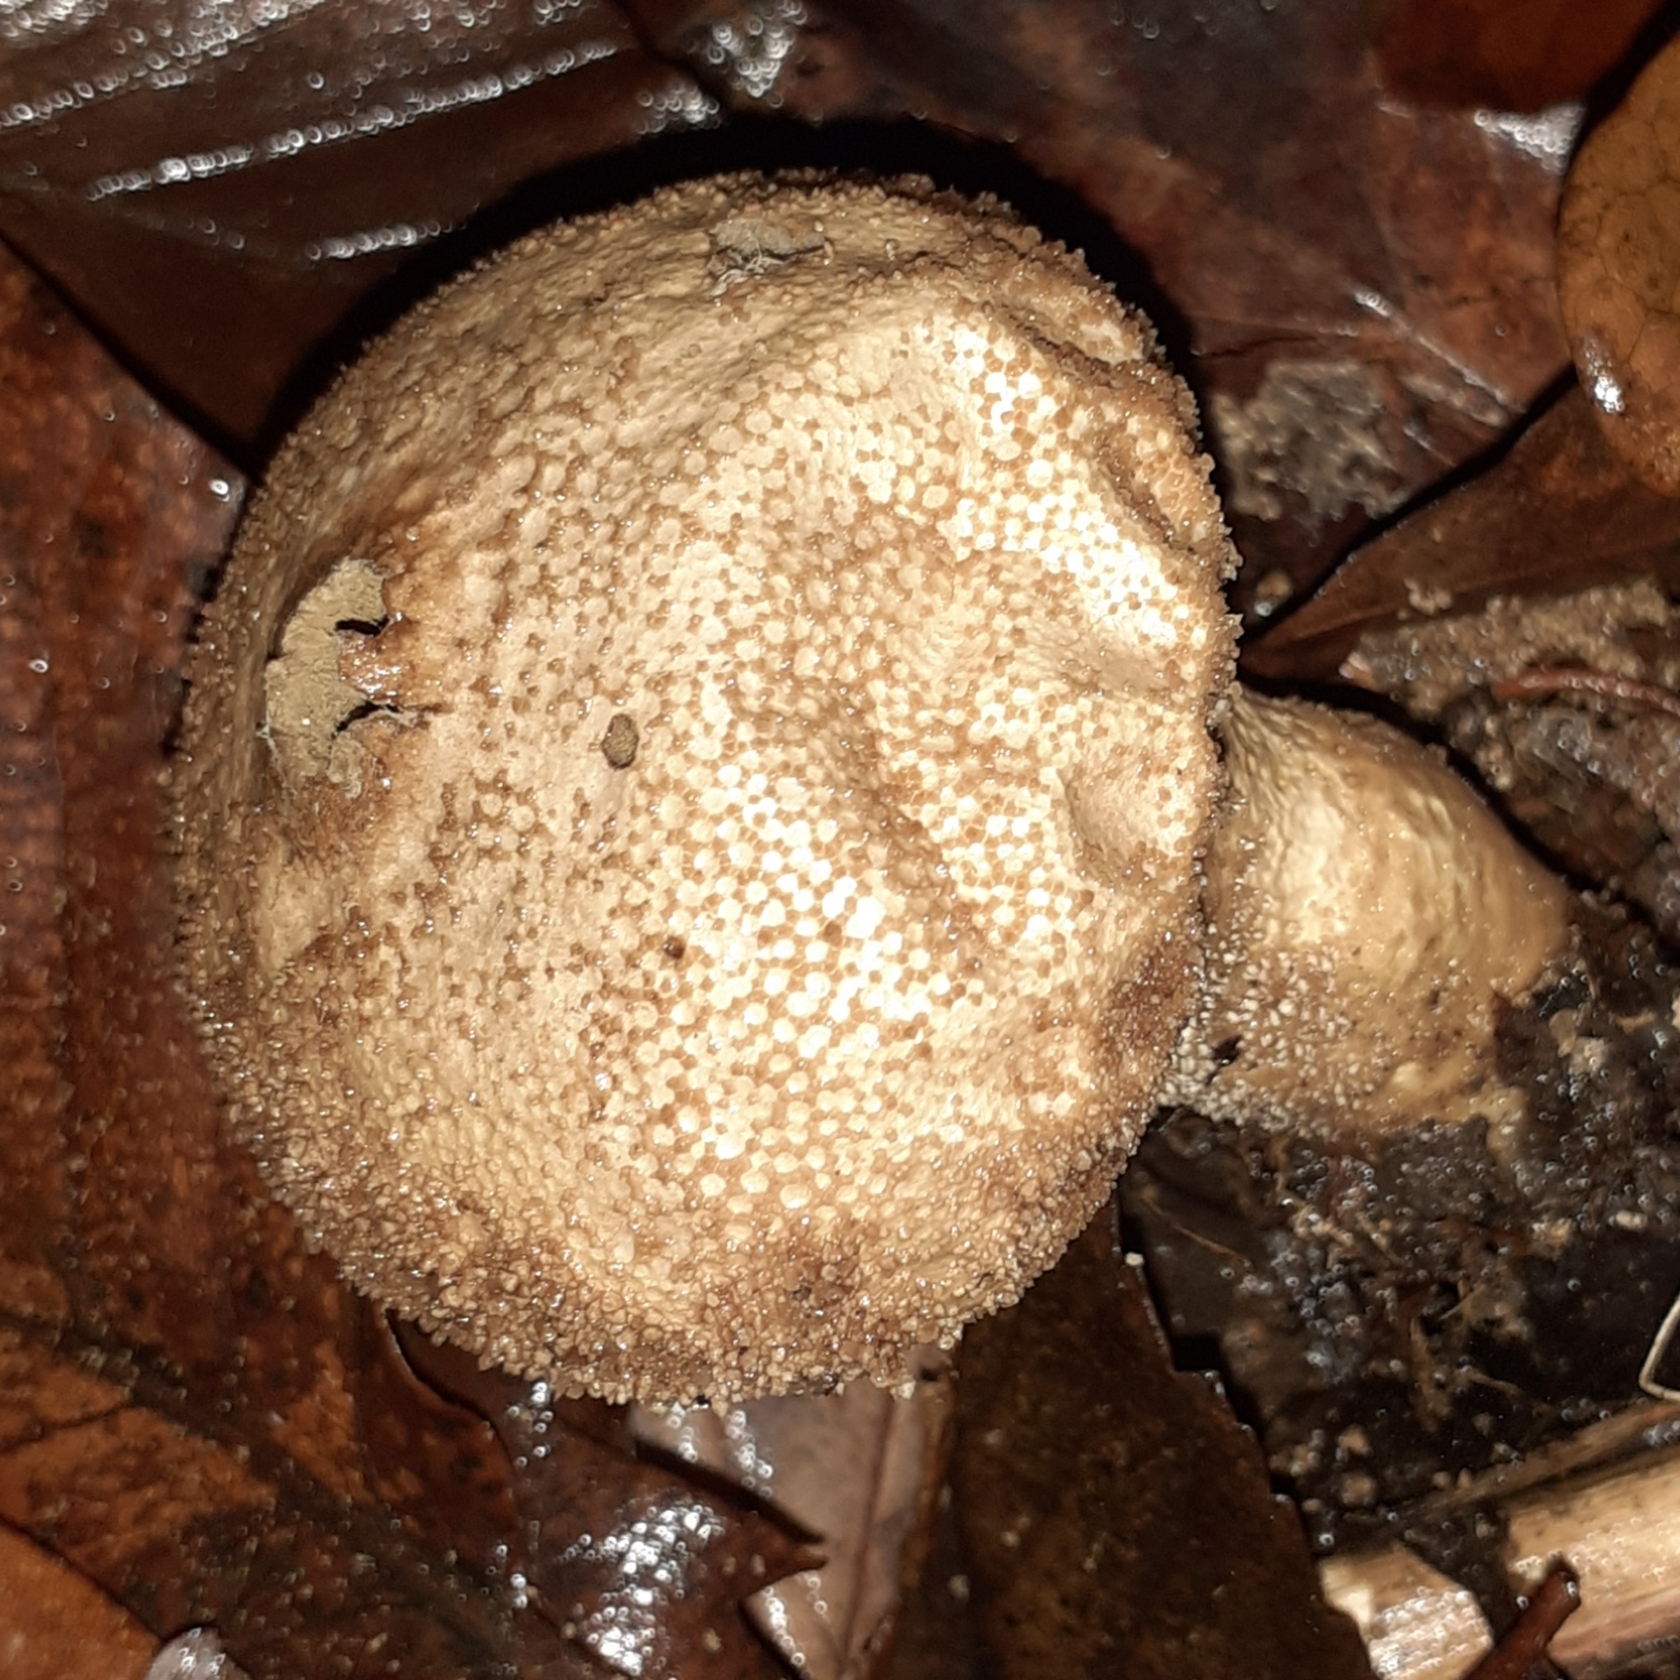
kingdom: Fungi
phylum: Basidiomycota
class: Agaricomycetes
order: Agaricales
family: Lycoperdaceae
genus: Lycoperdon
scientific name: Lycoperdon perlatum
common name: Common puffball
